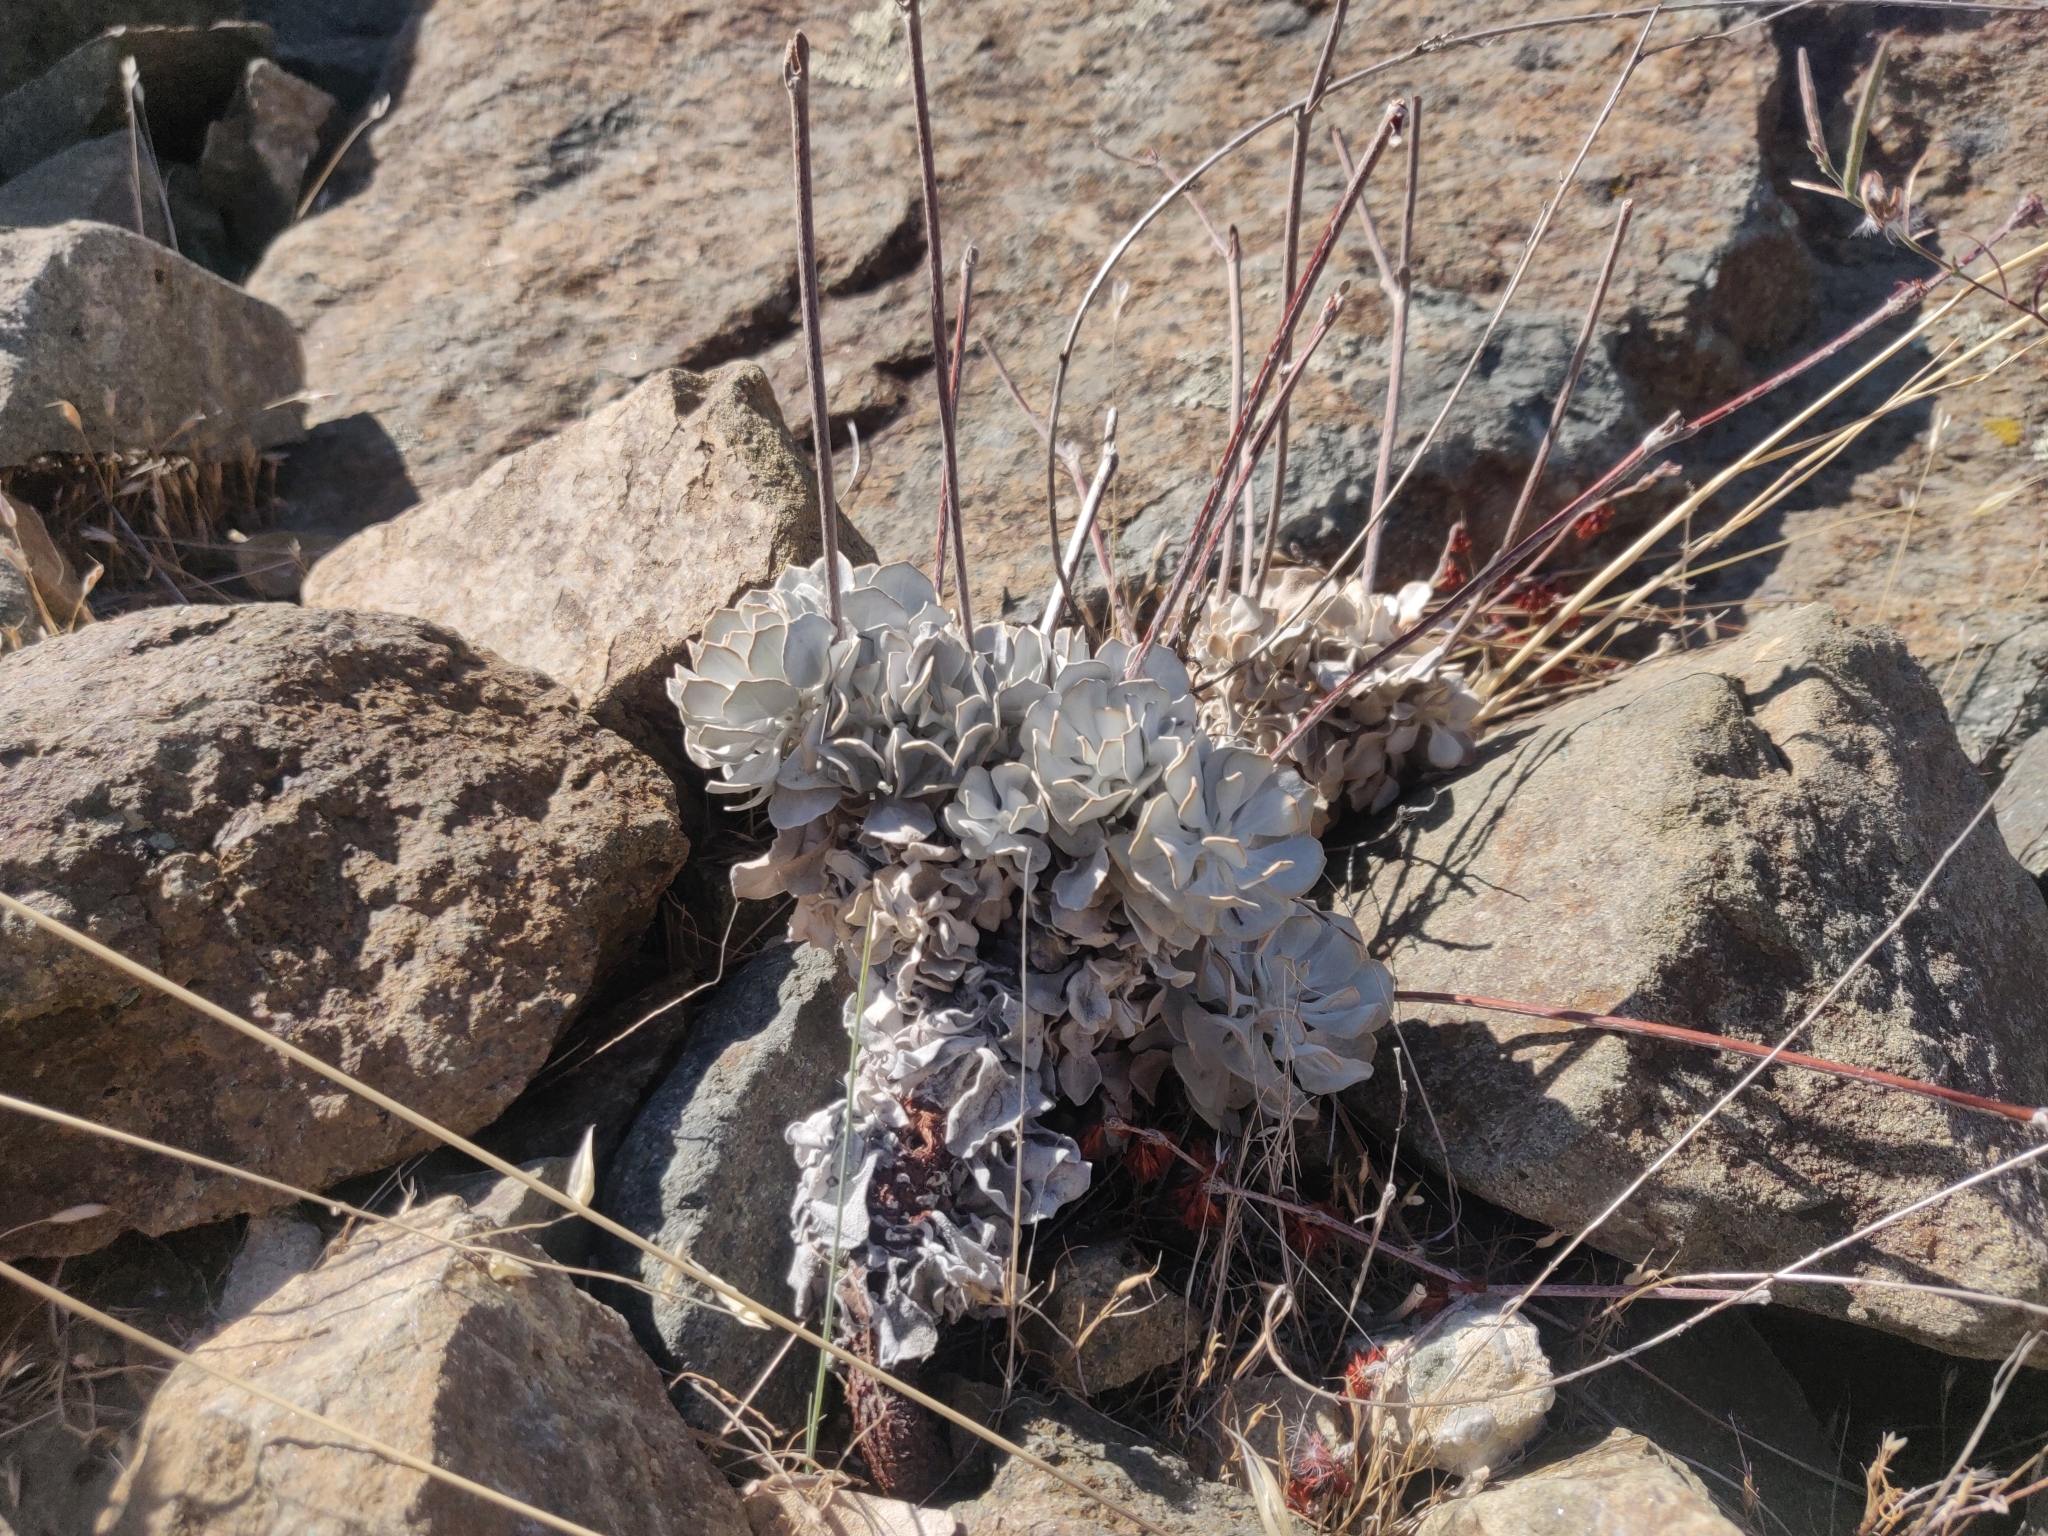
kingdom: Plantae
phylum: Tracheophyta
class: Magnoliopsida
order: Caryophyllales
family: Polygonaceae
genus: Eriogonum
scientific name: Eriogonum saxatile
